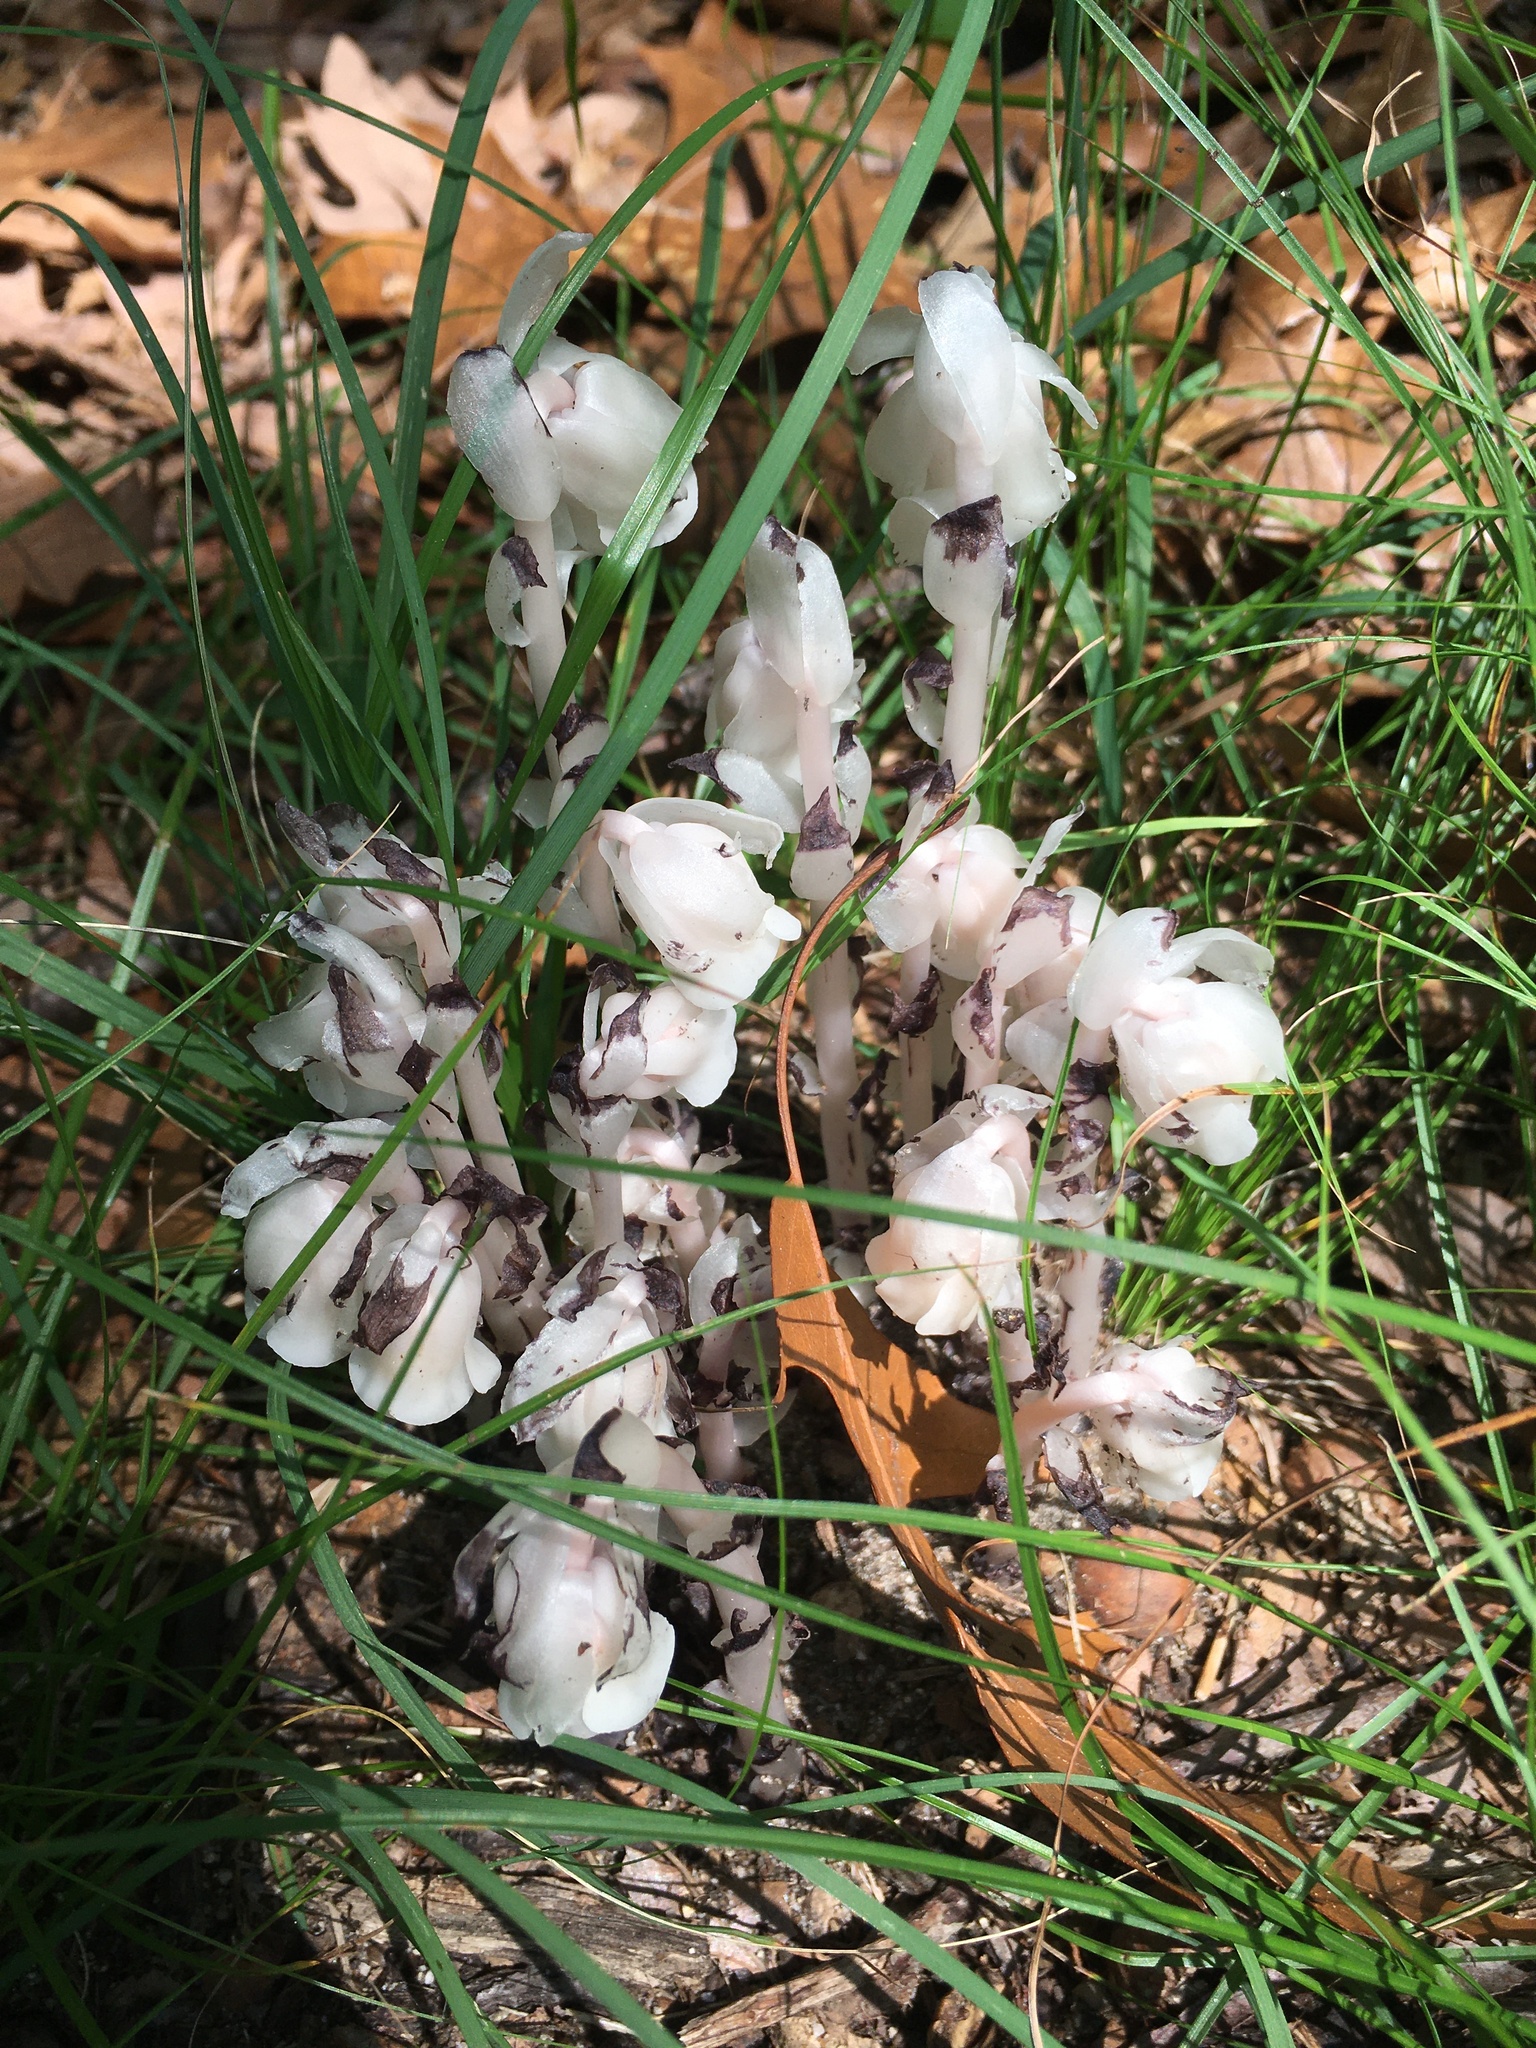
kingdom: Plantae
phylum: Tracheophyta
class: Magnoliopsida
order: Ericales
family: Ericaceae
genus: Monotropa
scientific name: Monotropa uniflora
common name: Convulsion root
